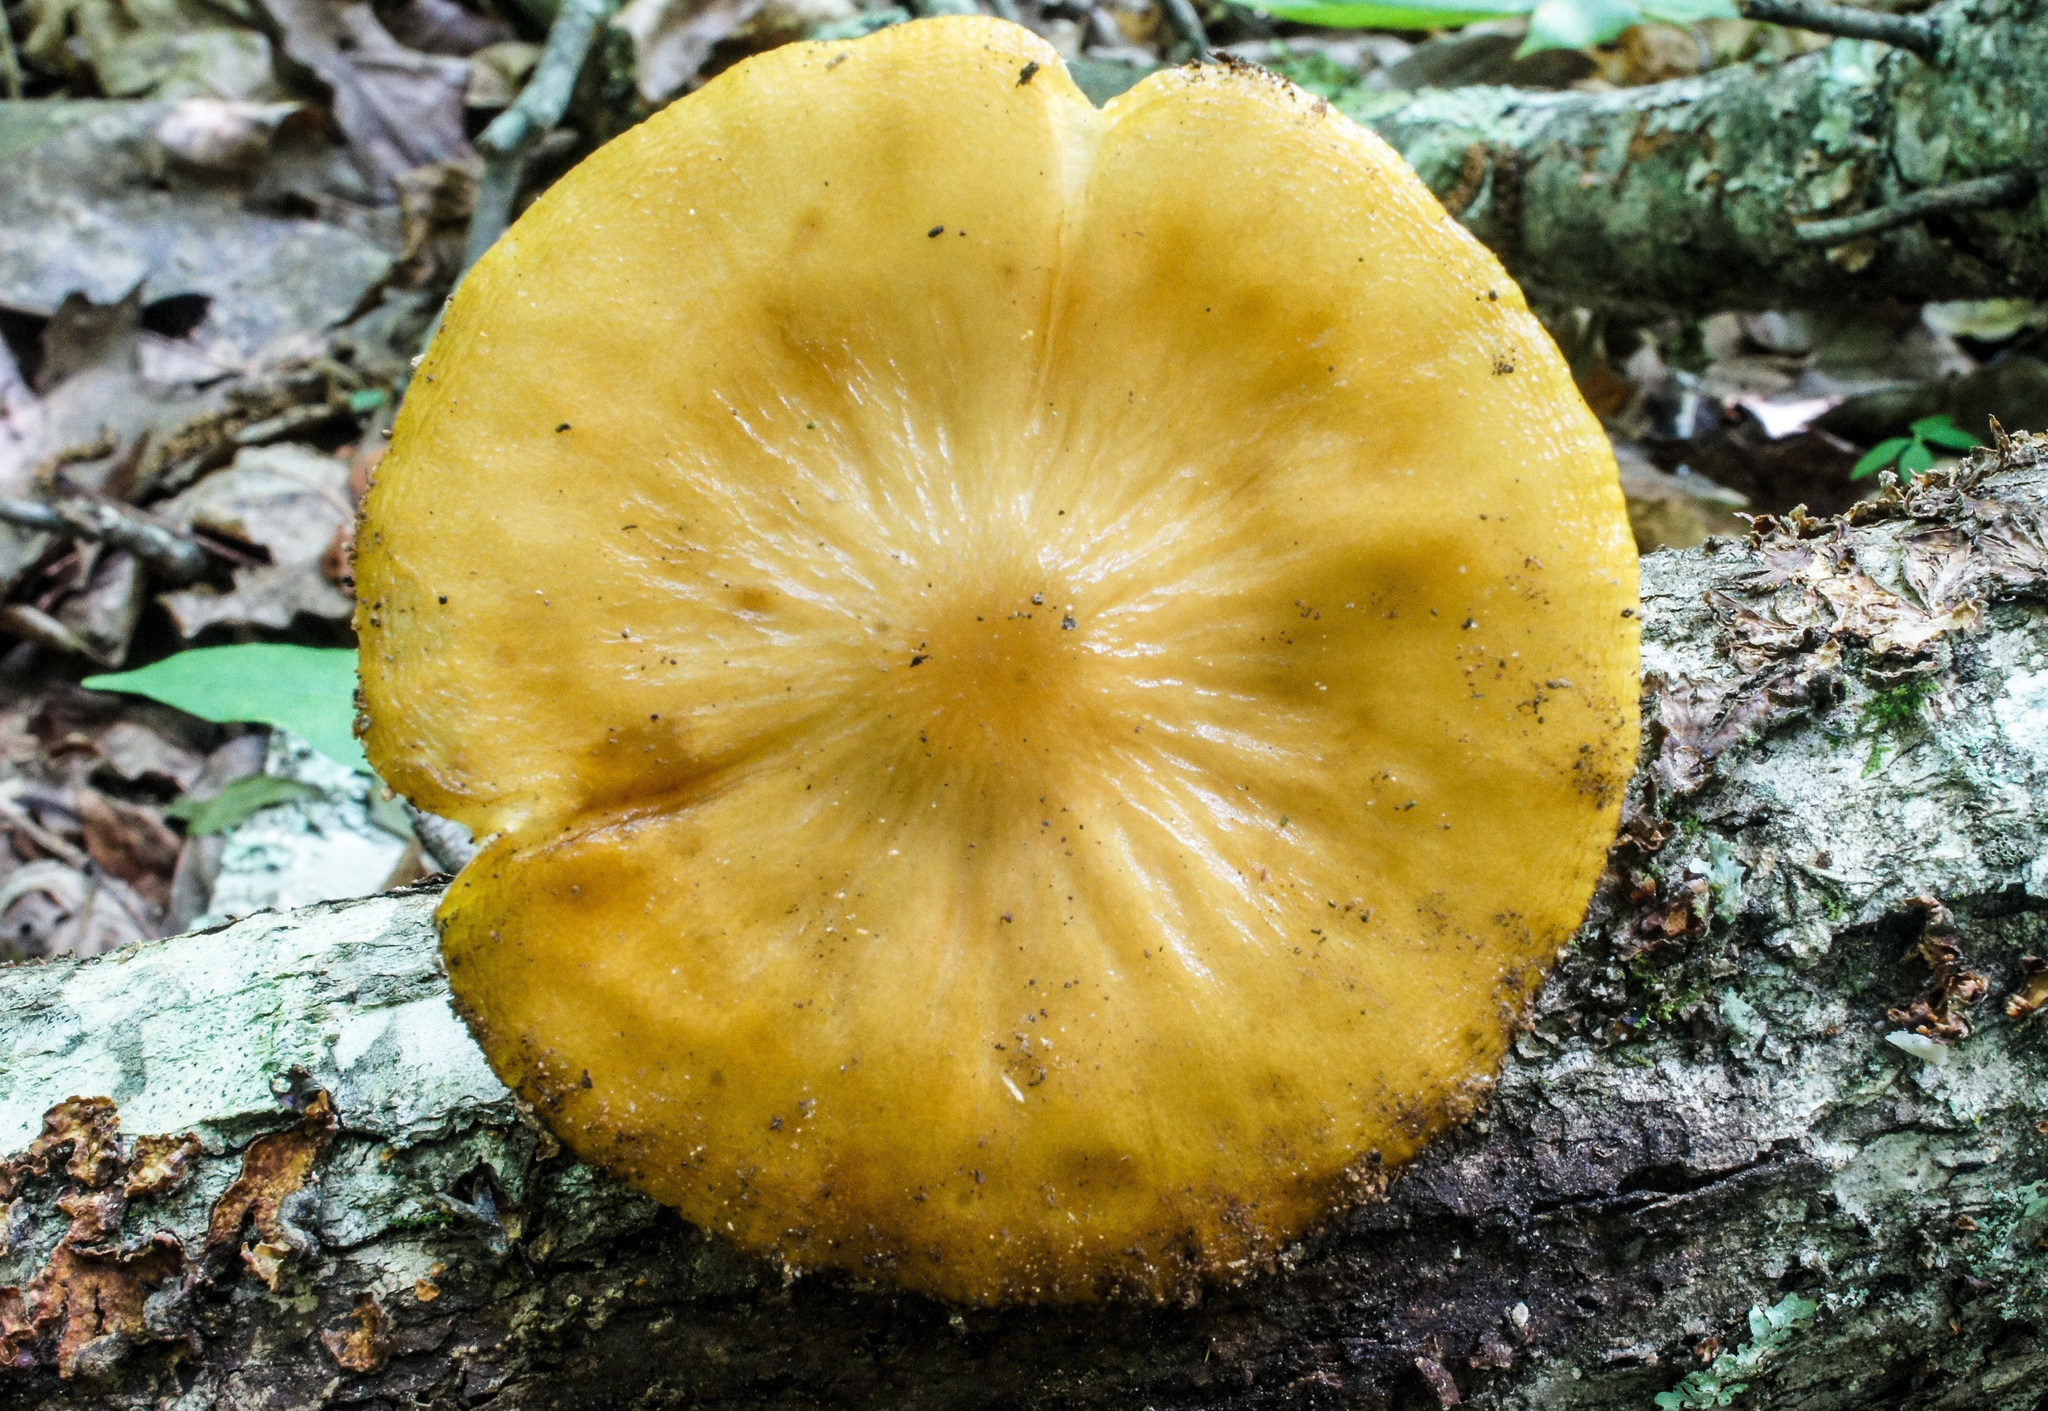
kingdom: Fungi
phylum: Basidiomycota
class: Agaricomycetes
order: Agaricales
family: Physalacriaceae
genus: Hymenopellis
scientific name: Hymenopellis sinapicolor
